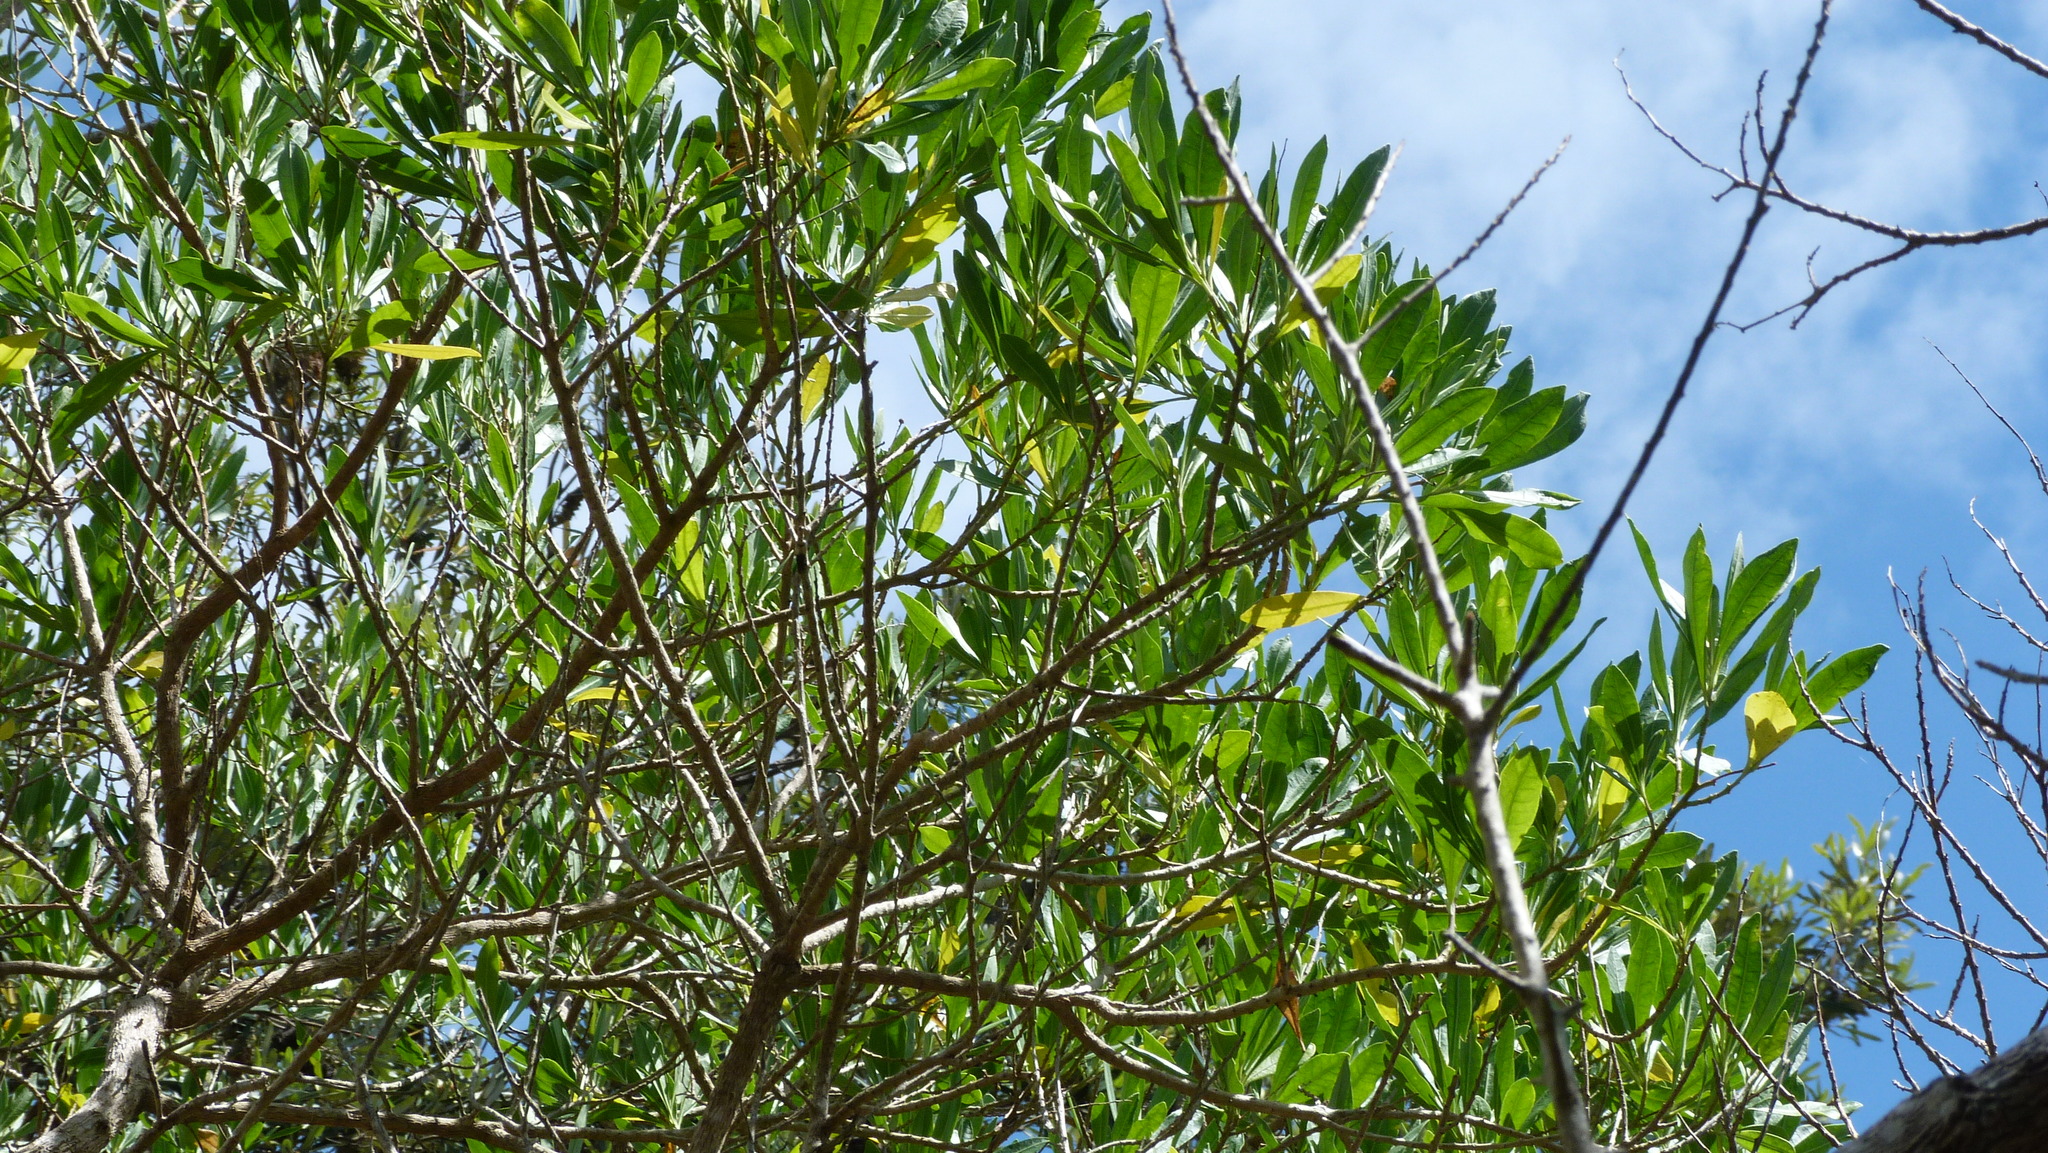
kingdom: Plantae
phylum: Tracheophyta
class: Magnoliopsida
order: Solanales
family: Solanaceae
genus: Duboisia
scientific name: Duboisia myoporoides
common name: Corkwoodtree
